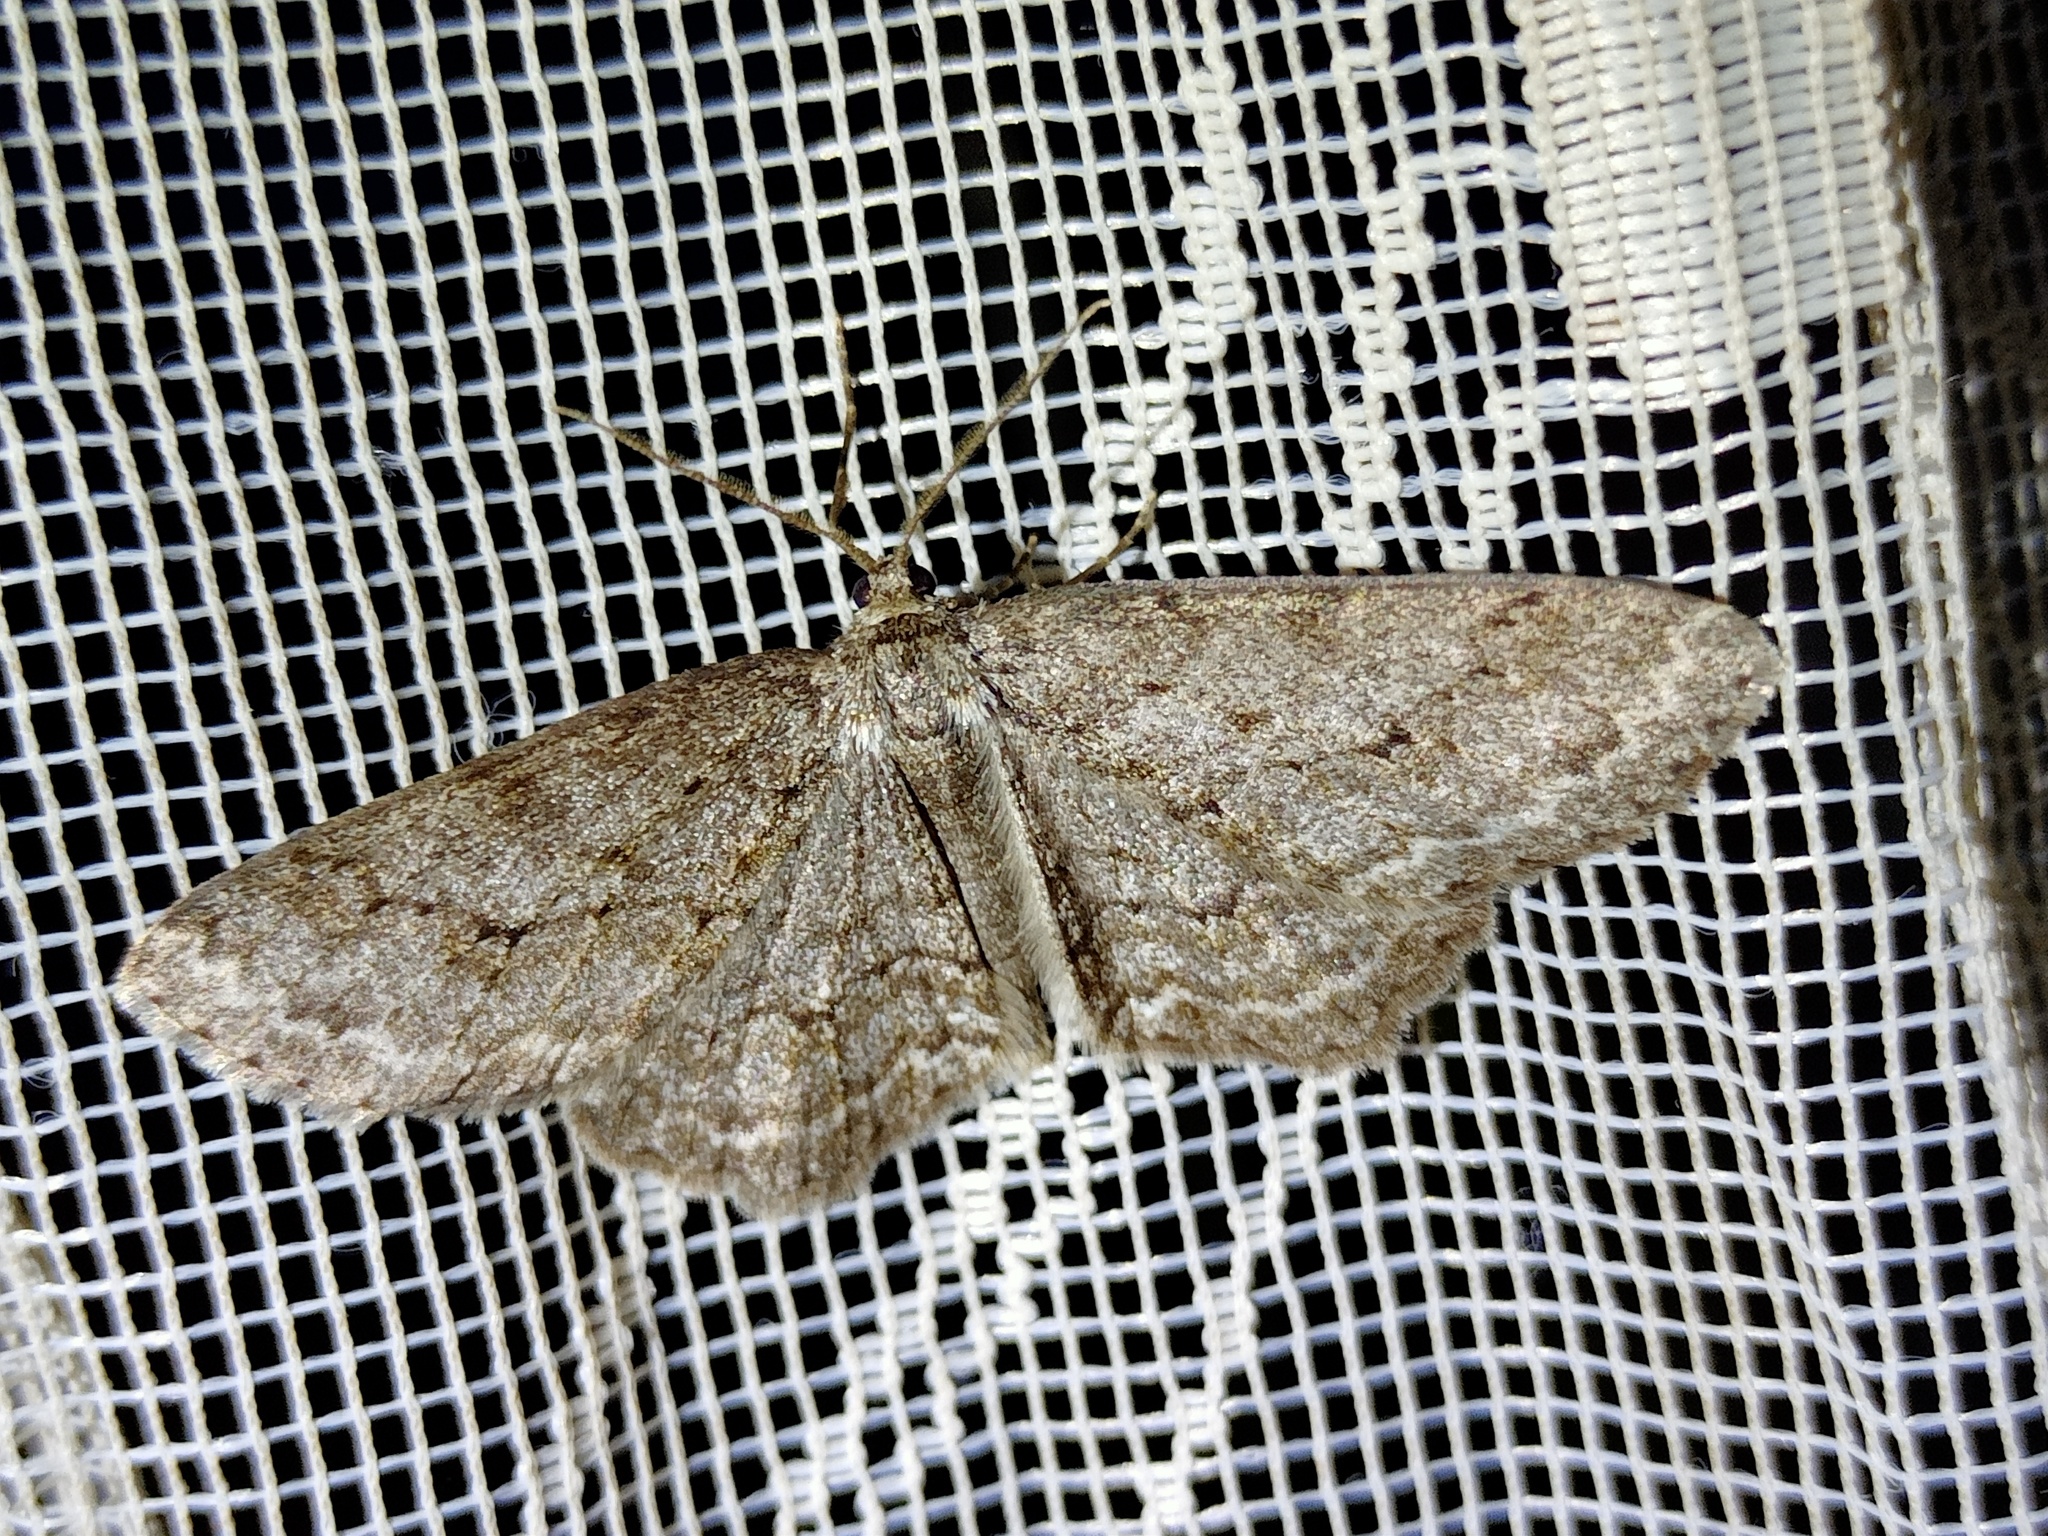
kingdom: Animalia
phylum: Arthropoda
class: Insecta
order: Lepidoptera
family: Geometridae
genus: Ectropis
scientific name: Ectropis crepuscularia
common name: Engrailed
